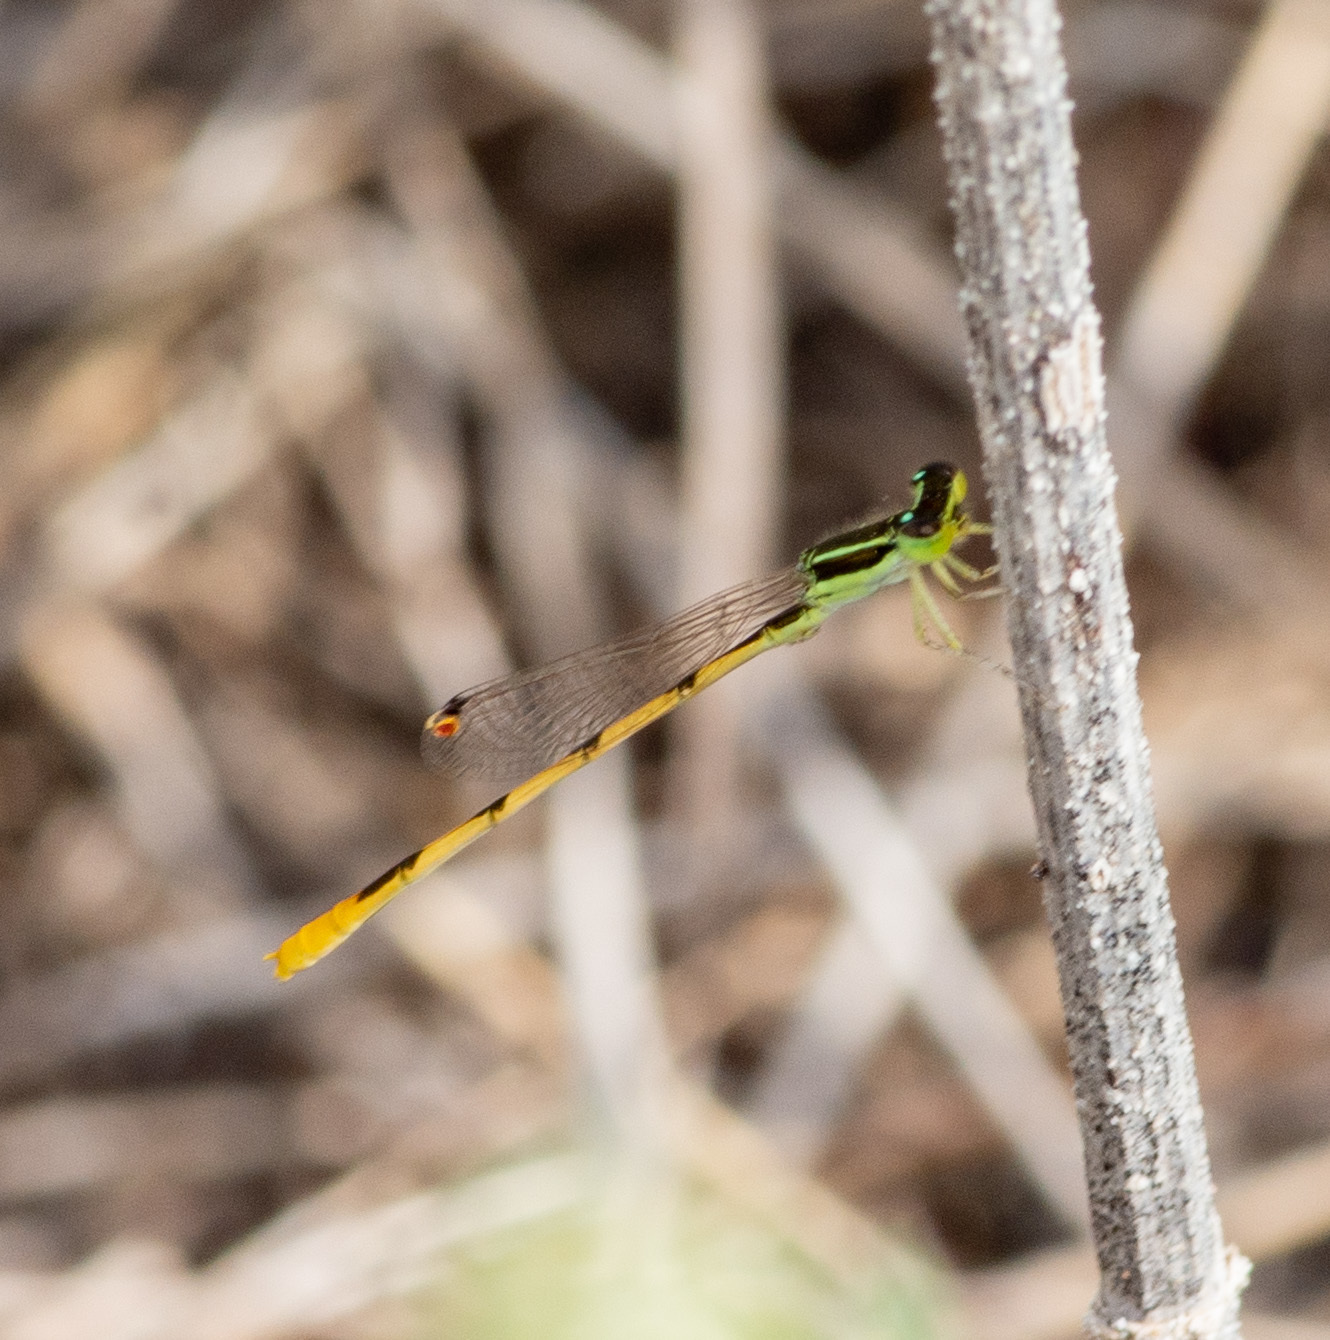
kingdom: Animalia
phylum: Arthropoda
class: Insecta
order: Odonata
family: Coenagrionidae
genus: Ischnura
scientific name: Ischnura hastata
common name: Citrine forktail
